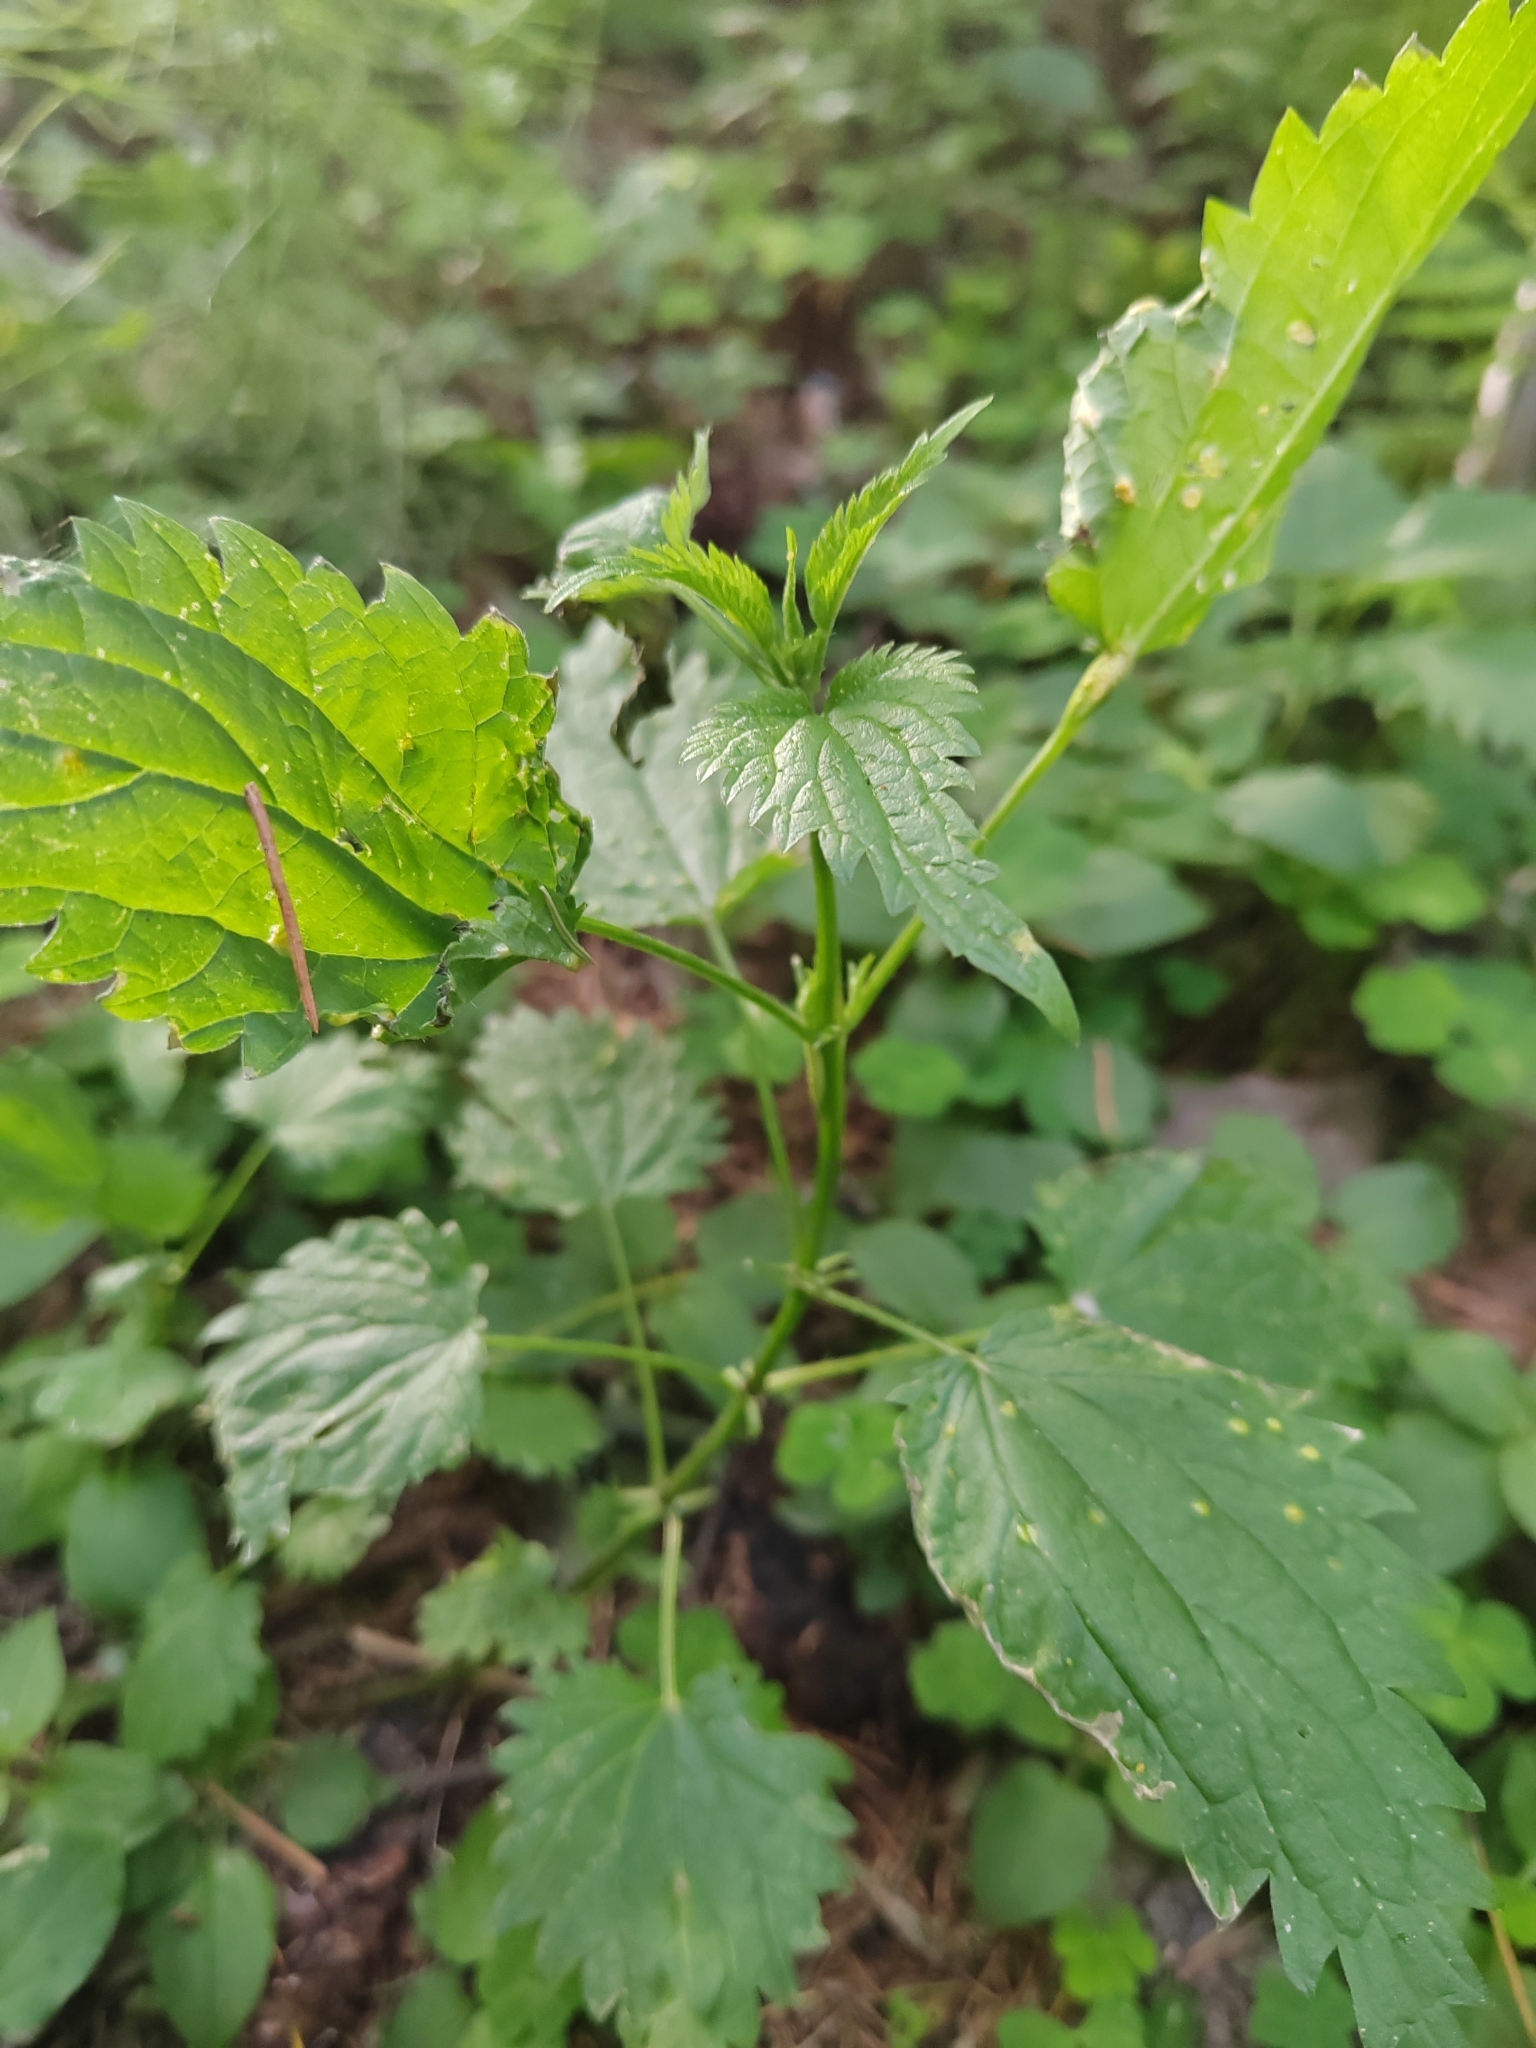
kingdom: Plantae
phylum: Tracheophyta
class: Magnoliopsida
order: Rosales
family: Urticaceae
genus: Urtica
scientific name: Urtica dioica
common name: Common nettle
